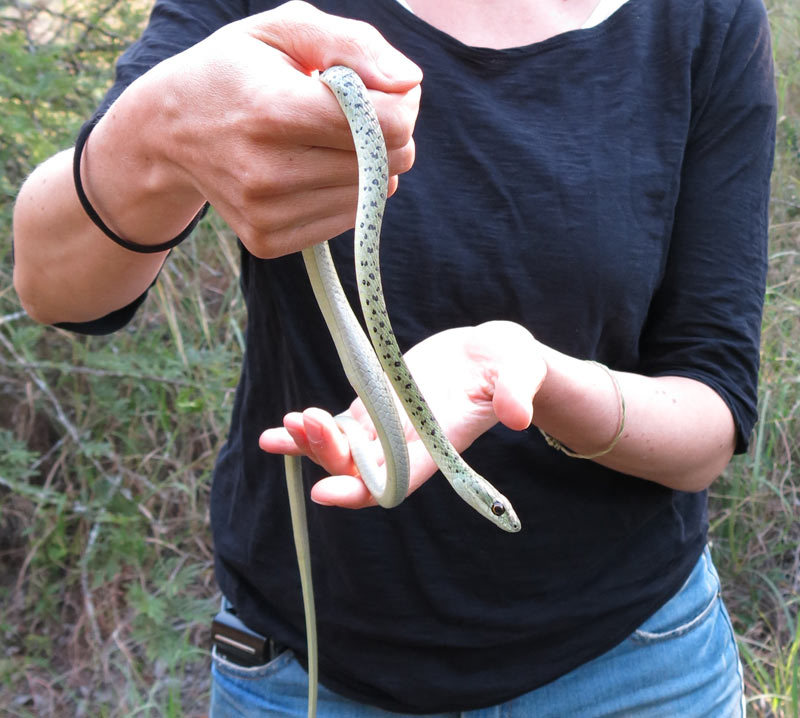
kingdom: Animalia
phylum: Chordata
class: Squamata
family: Colubridae
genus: Philothamnus
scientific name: Philothamnus semivariegatus
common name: Spotted bush snake
